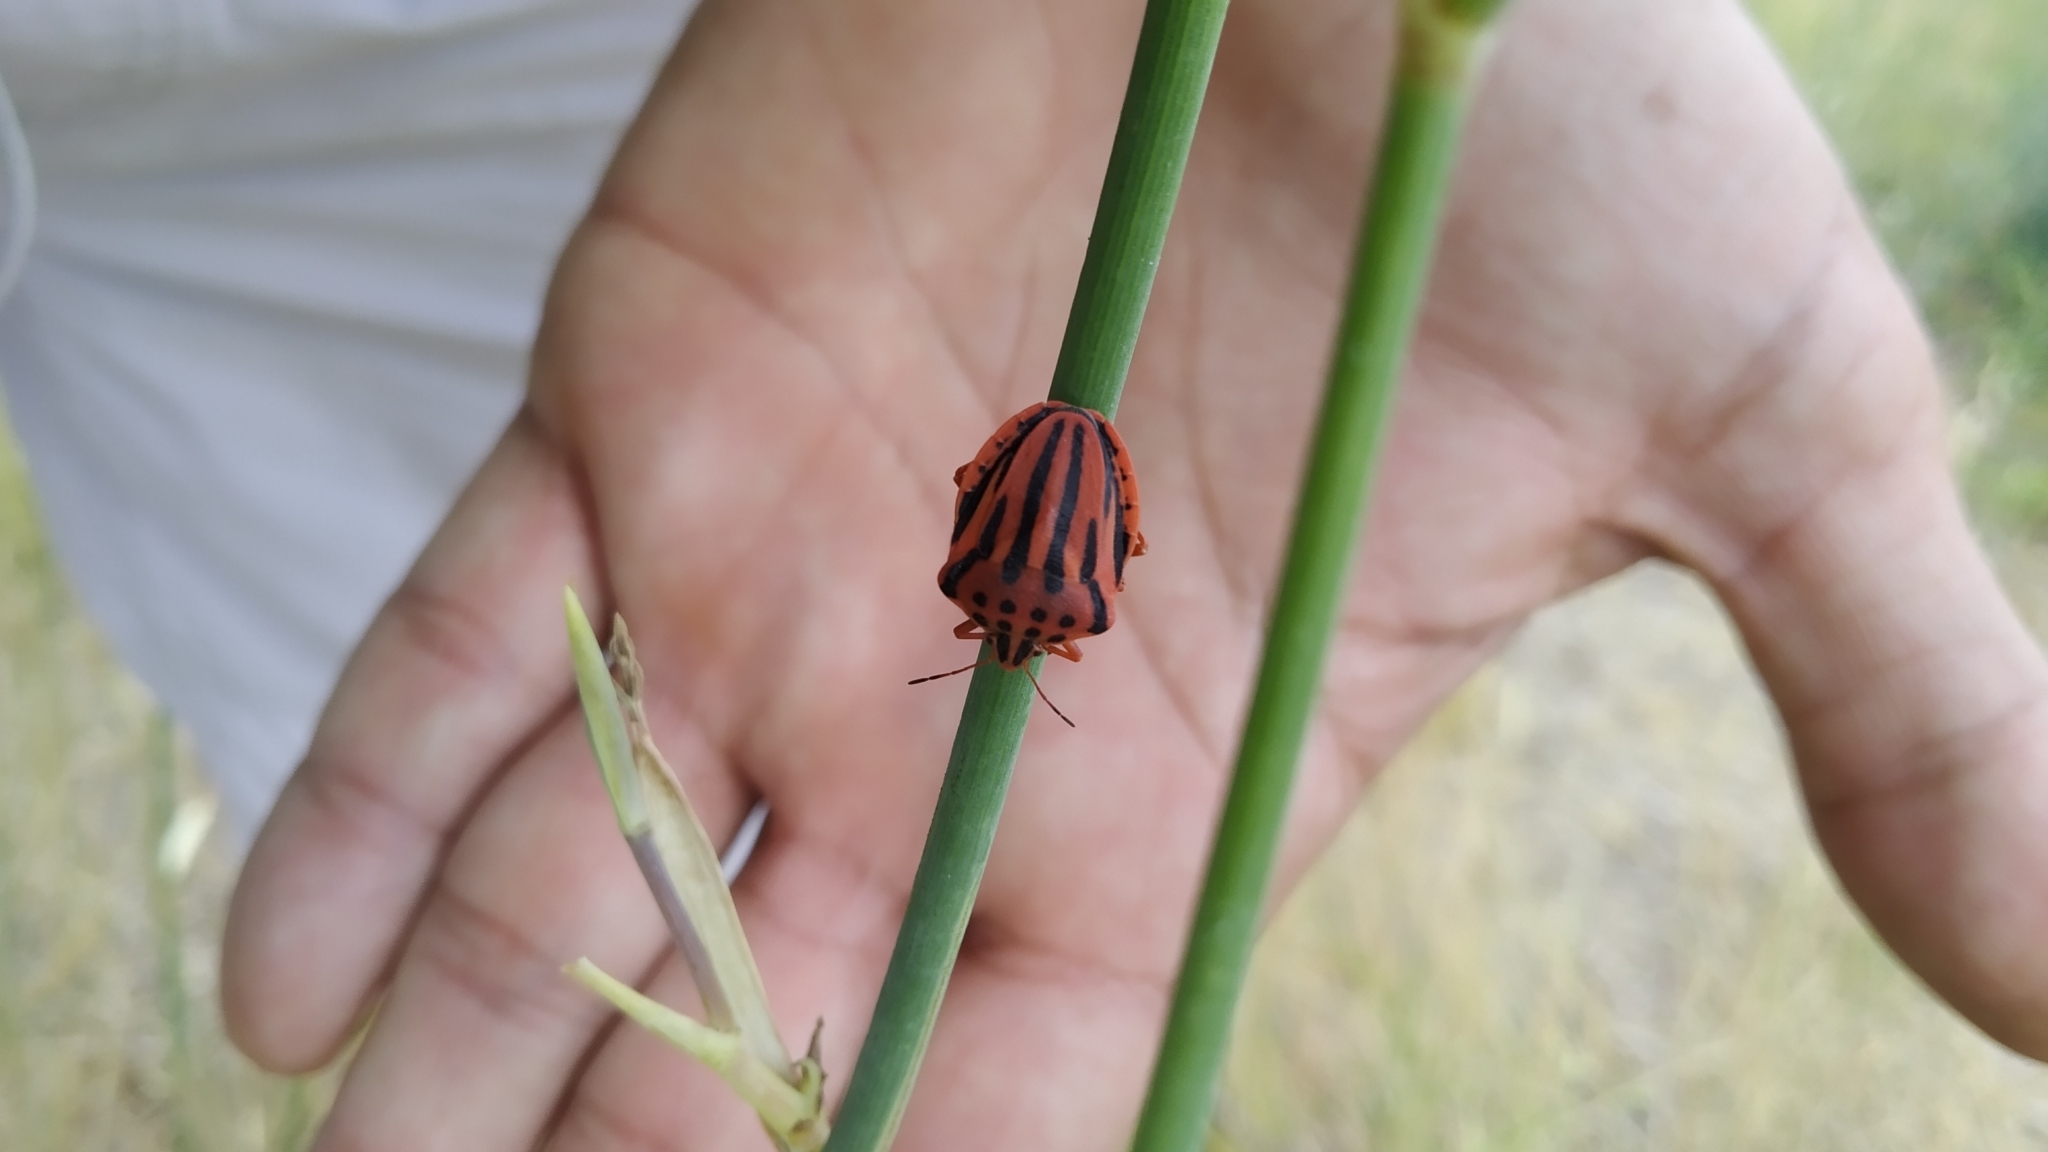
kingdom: Animalia
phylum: Arthropoda
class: Insecta
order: Hemiptera
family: Pentatomidae
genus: Graphosoma
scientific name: Graphosoma semipunctatum
